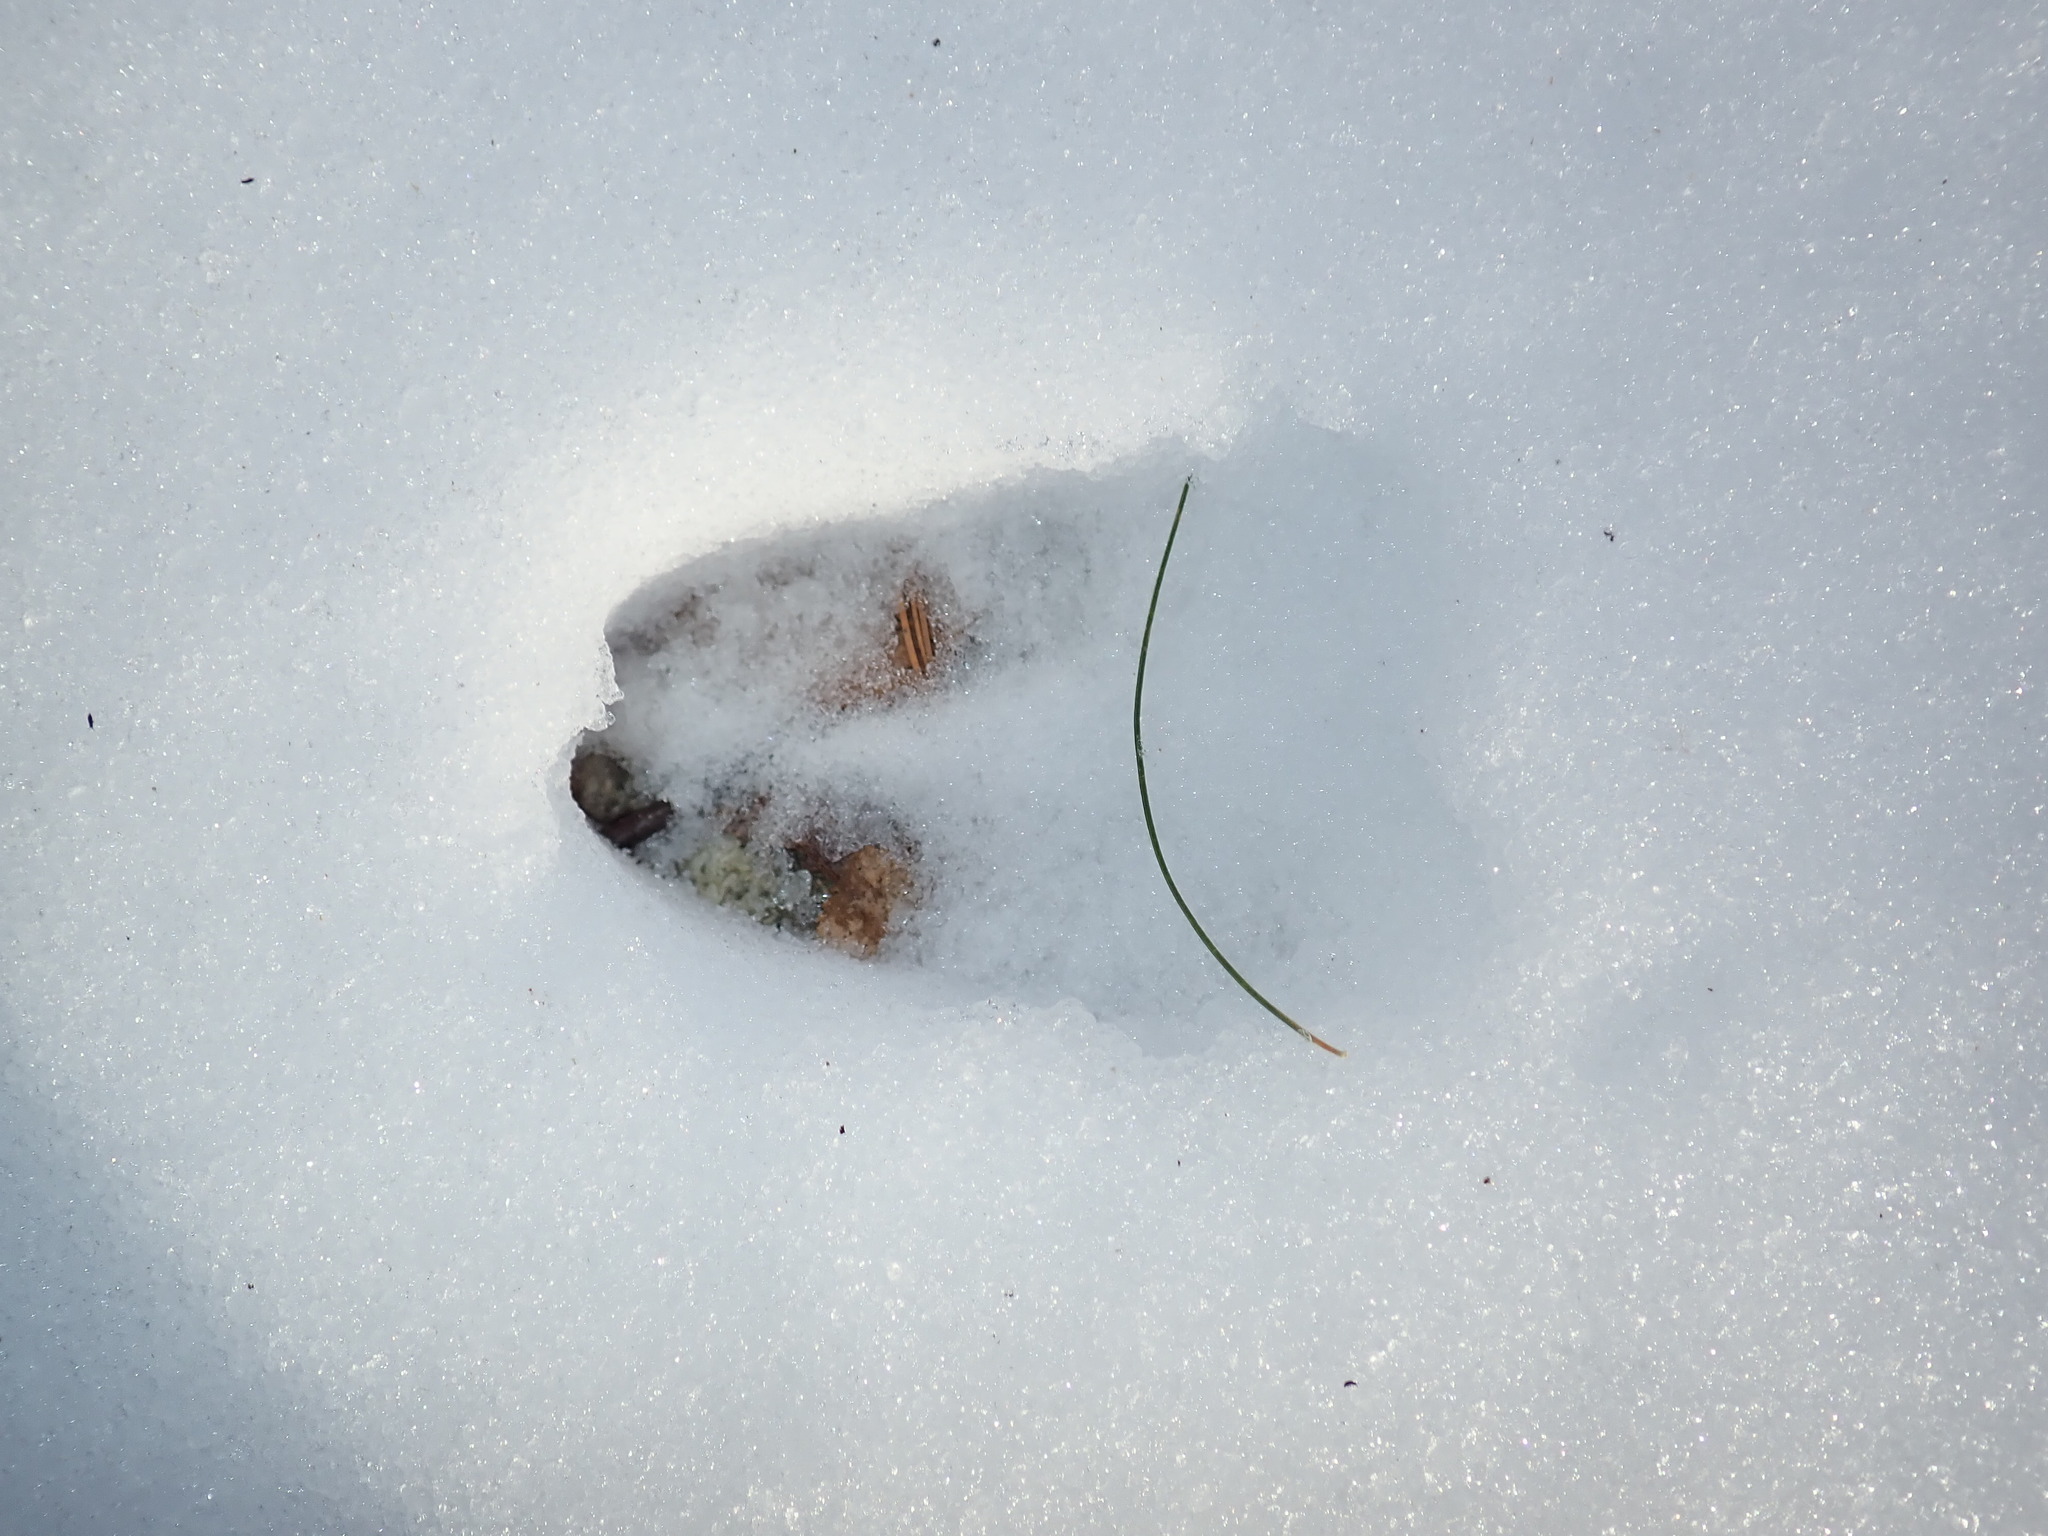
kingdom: Animalia
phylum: Chordata
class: Mammalia
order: Artiodactyla
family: Cervidae
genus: Odocoileus
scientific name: Odocoileus virginianus
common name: White-tailed deer
